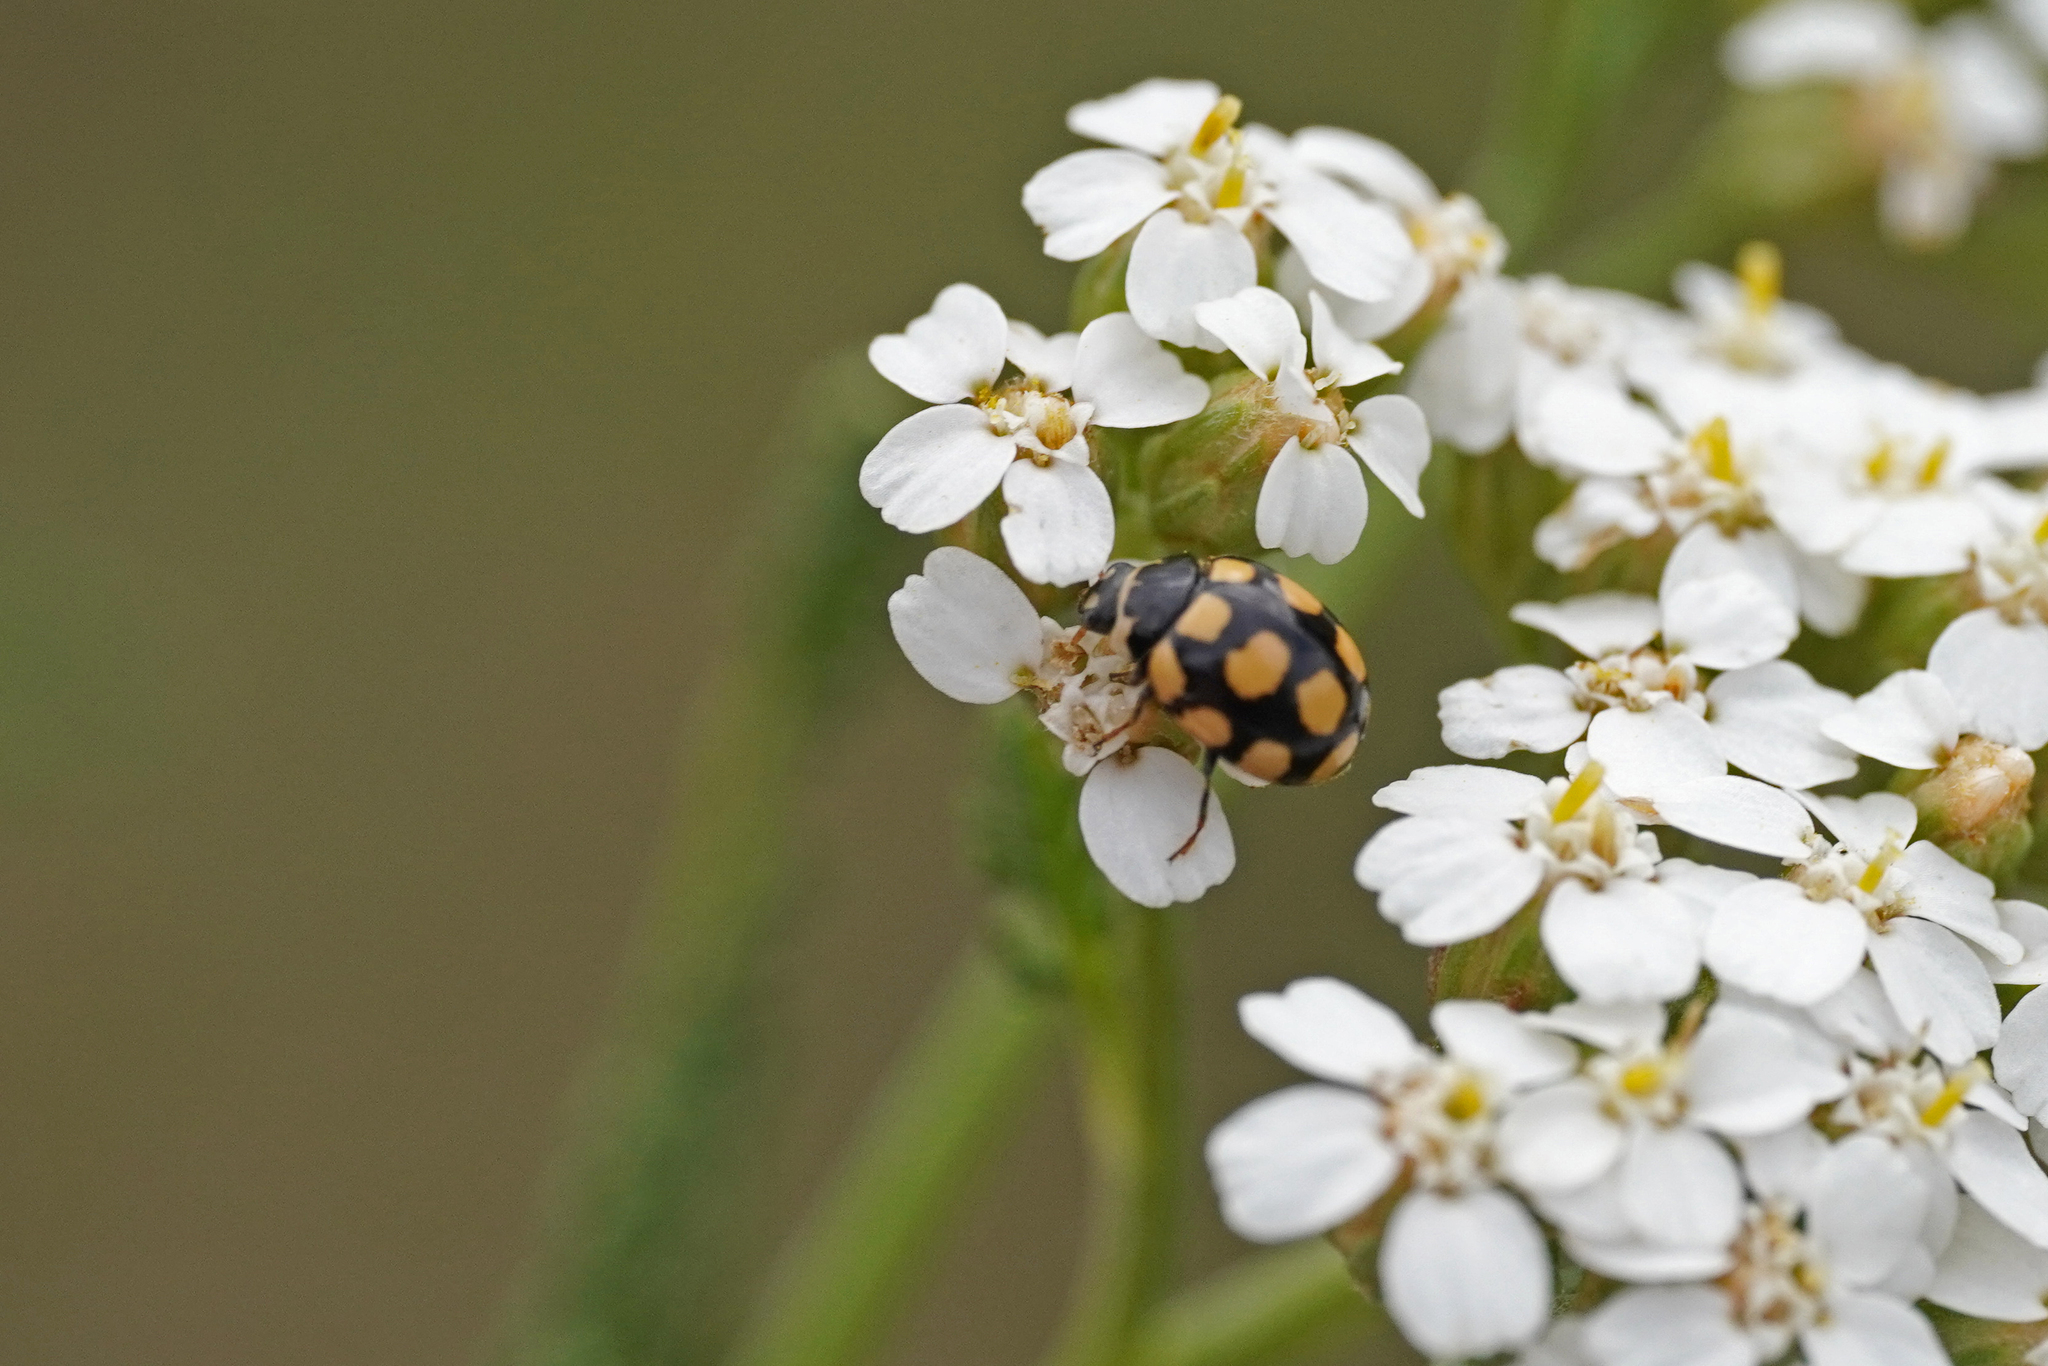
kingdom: Animalia
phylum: Arthropoda
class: Insecta
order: Coleoptera
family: Coccinellidae
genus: Coccinula
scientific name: Coccinula quatuordecimpustulata
